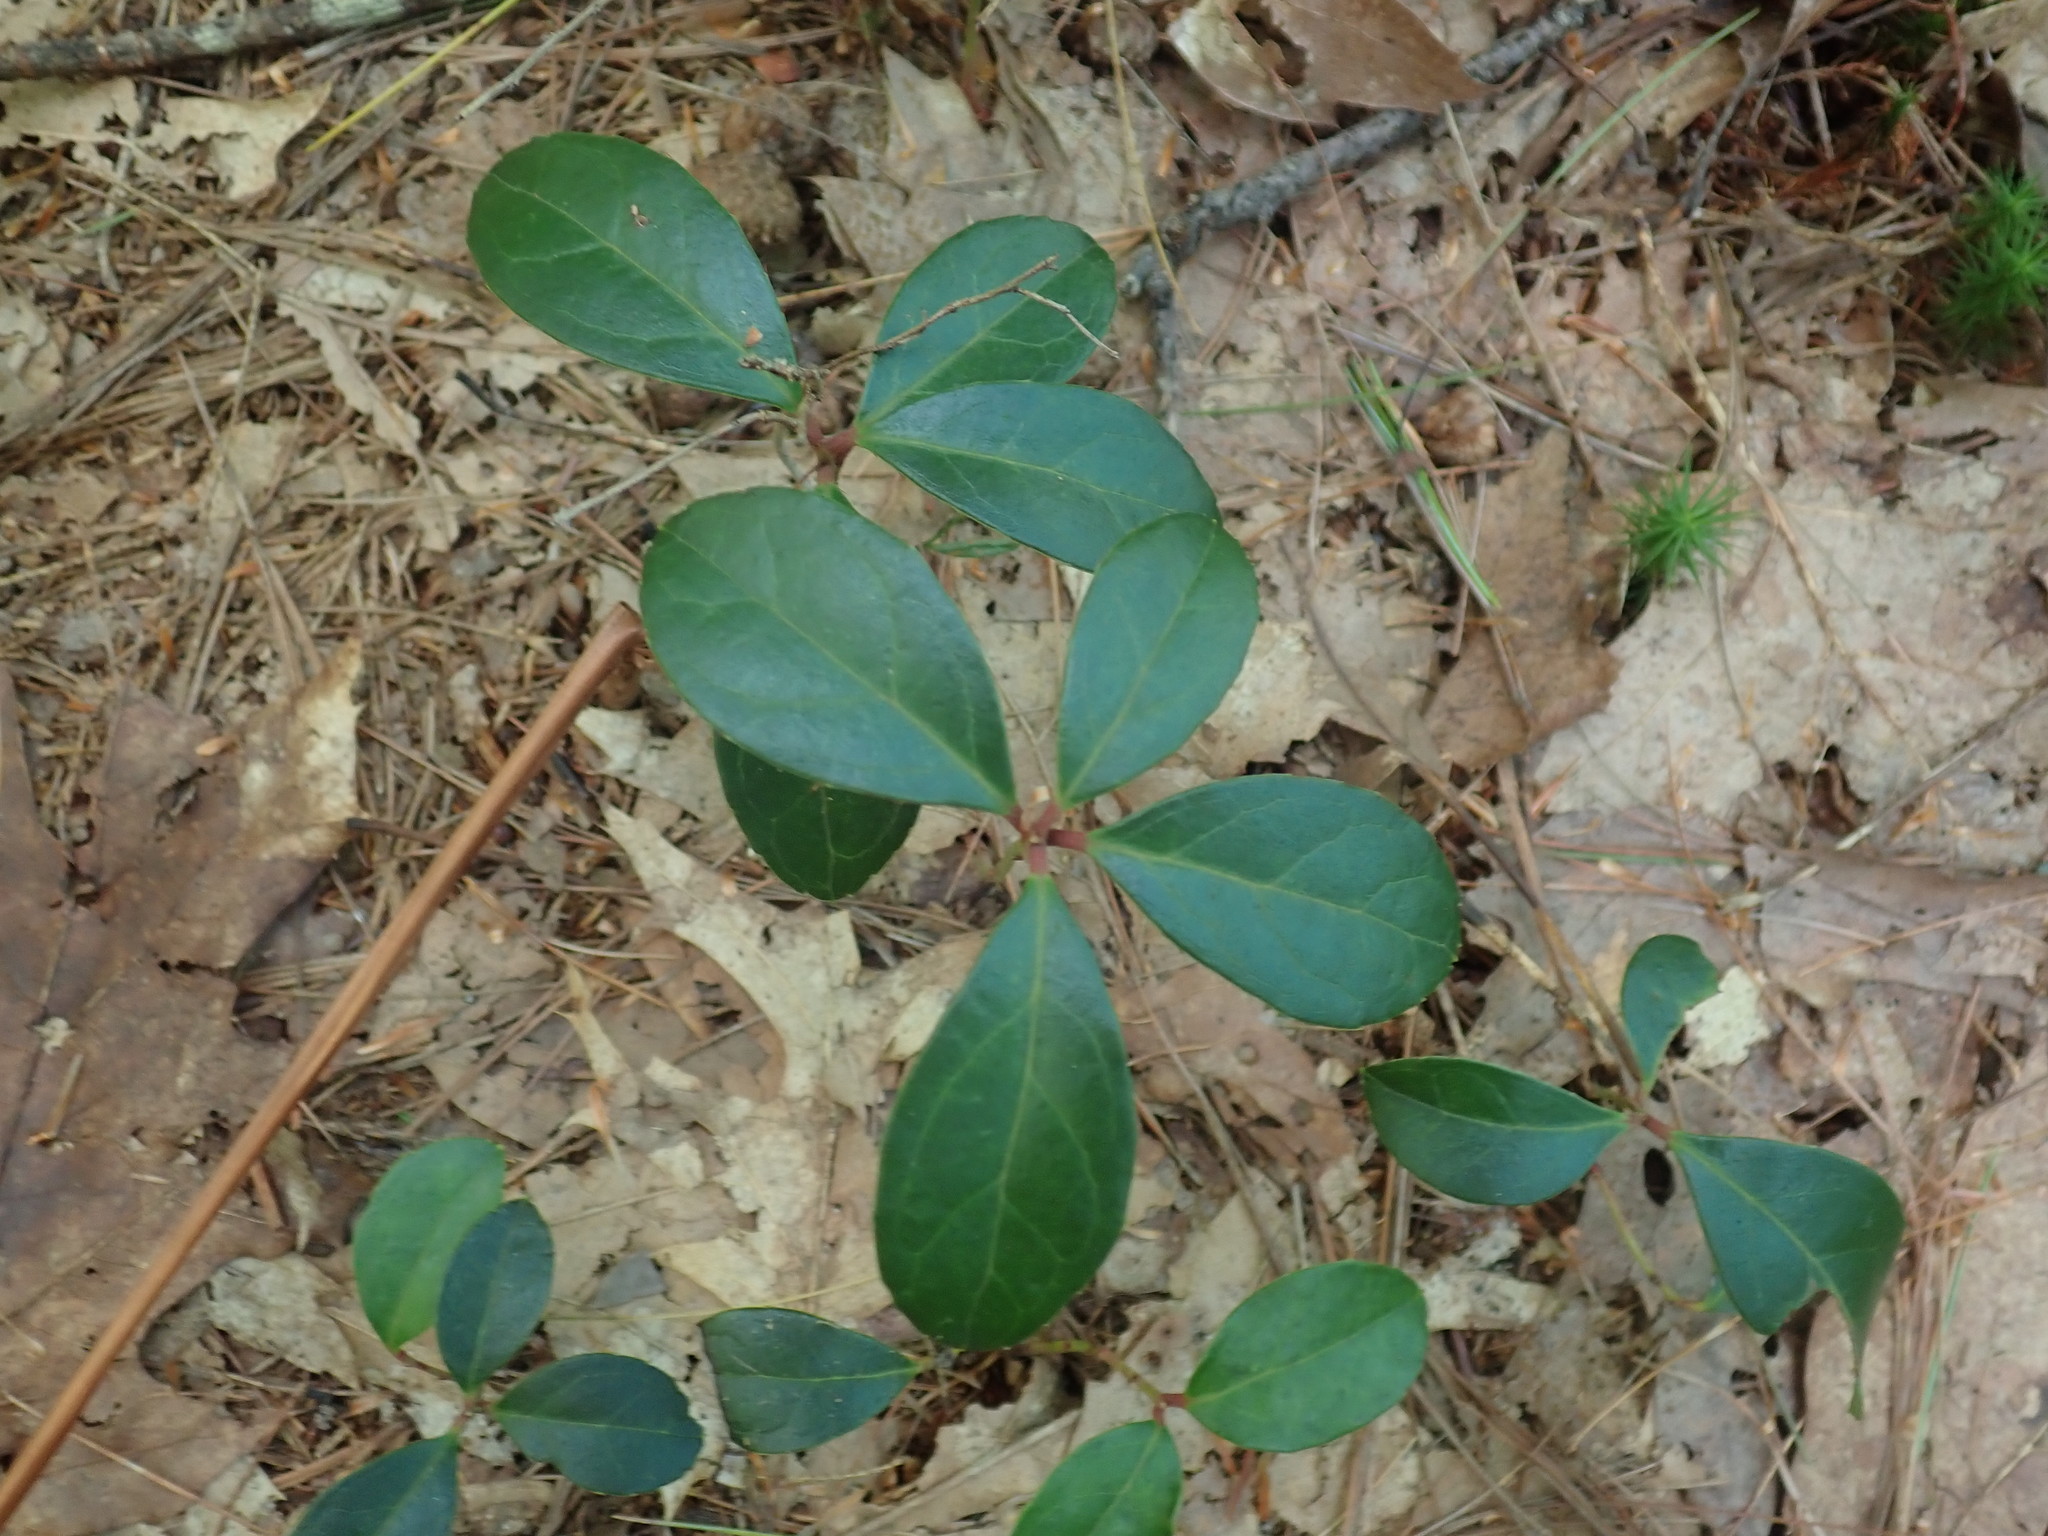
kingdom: Plantae
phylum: Tracheophyta
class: Magnoliopsida
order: Ericales
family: Ericaceae
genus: Gaultheria
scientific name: Gaultheria procumbens
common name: Checkerberry
